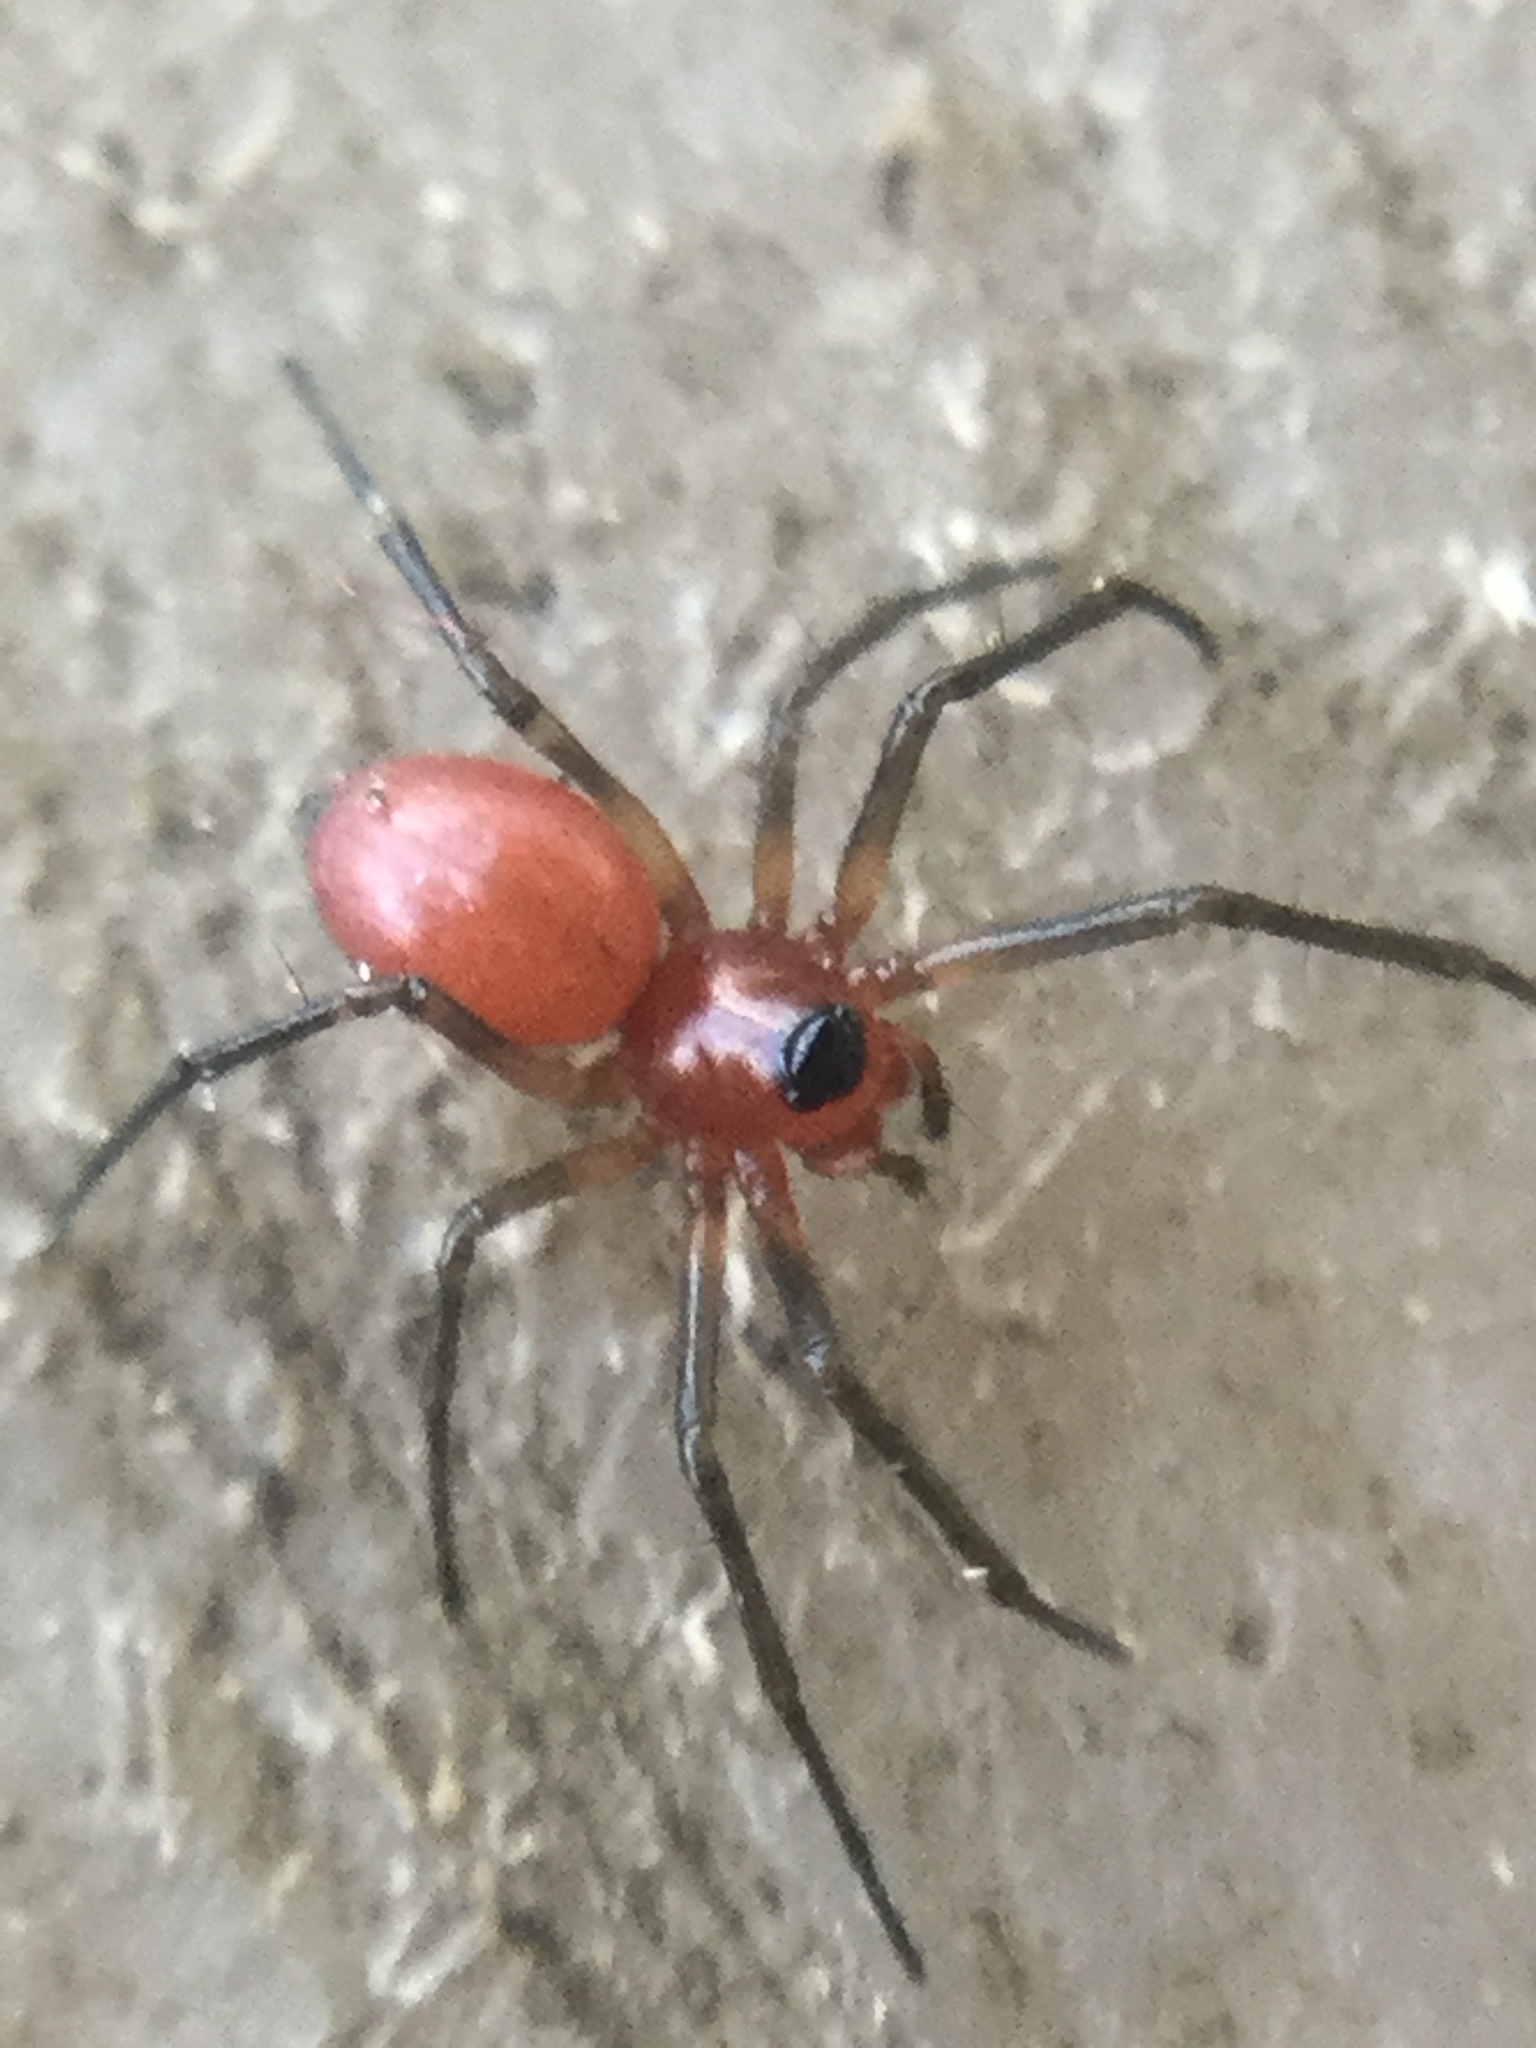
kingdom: Animalia
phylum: Arthropoda
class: Arachnida
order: Araneae
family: Linyphiidae
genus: Florinda
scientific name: Florinda coccinea
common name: Black-tailed red sheetweaver
